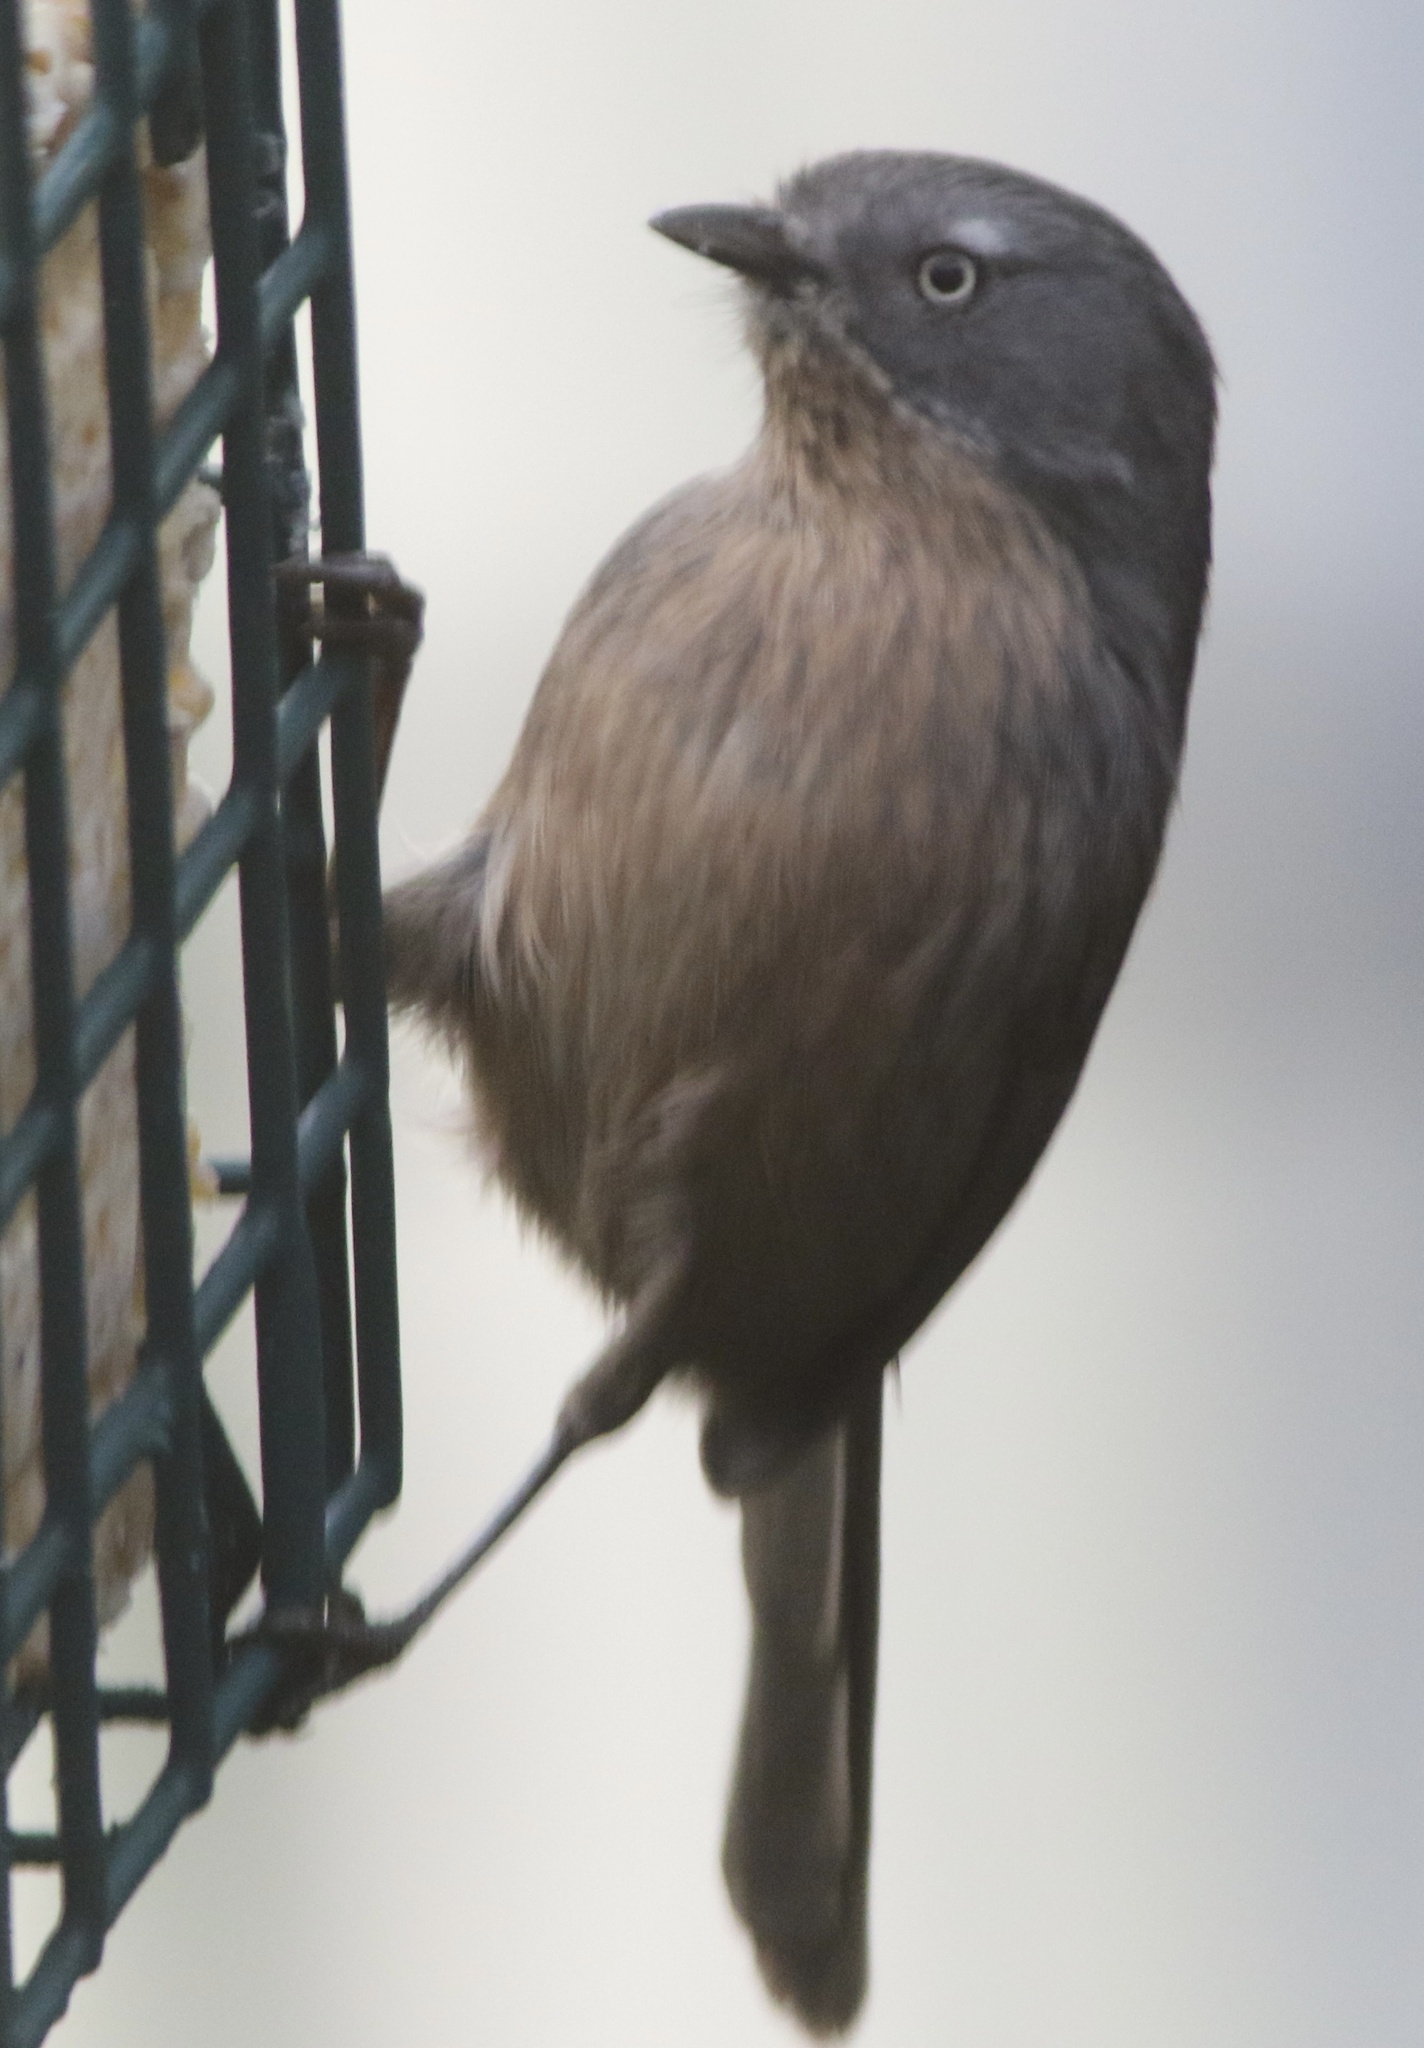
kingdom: Animalia
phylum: Chordata
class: Aves
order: Passeriformes
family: Sylviidae
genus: Chamaea
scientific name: Chamaea fasciata
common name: Wrentit
